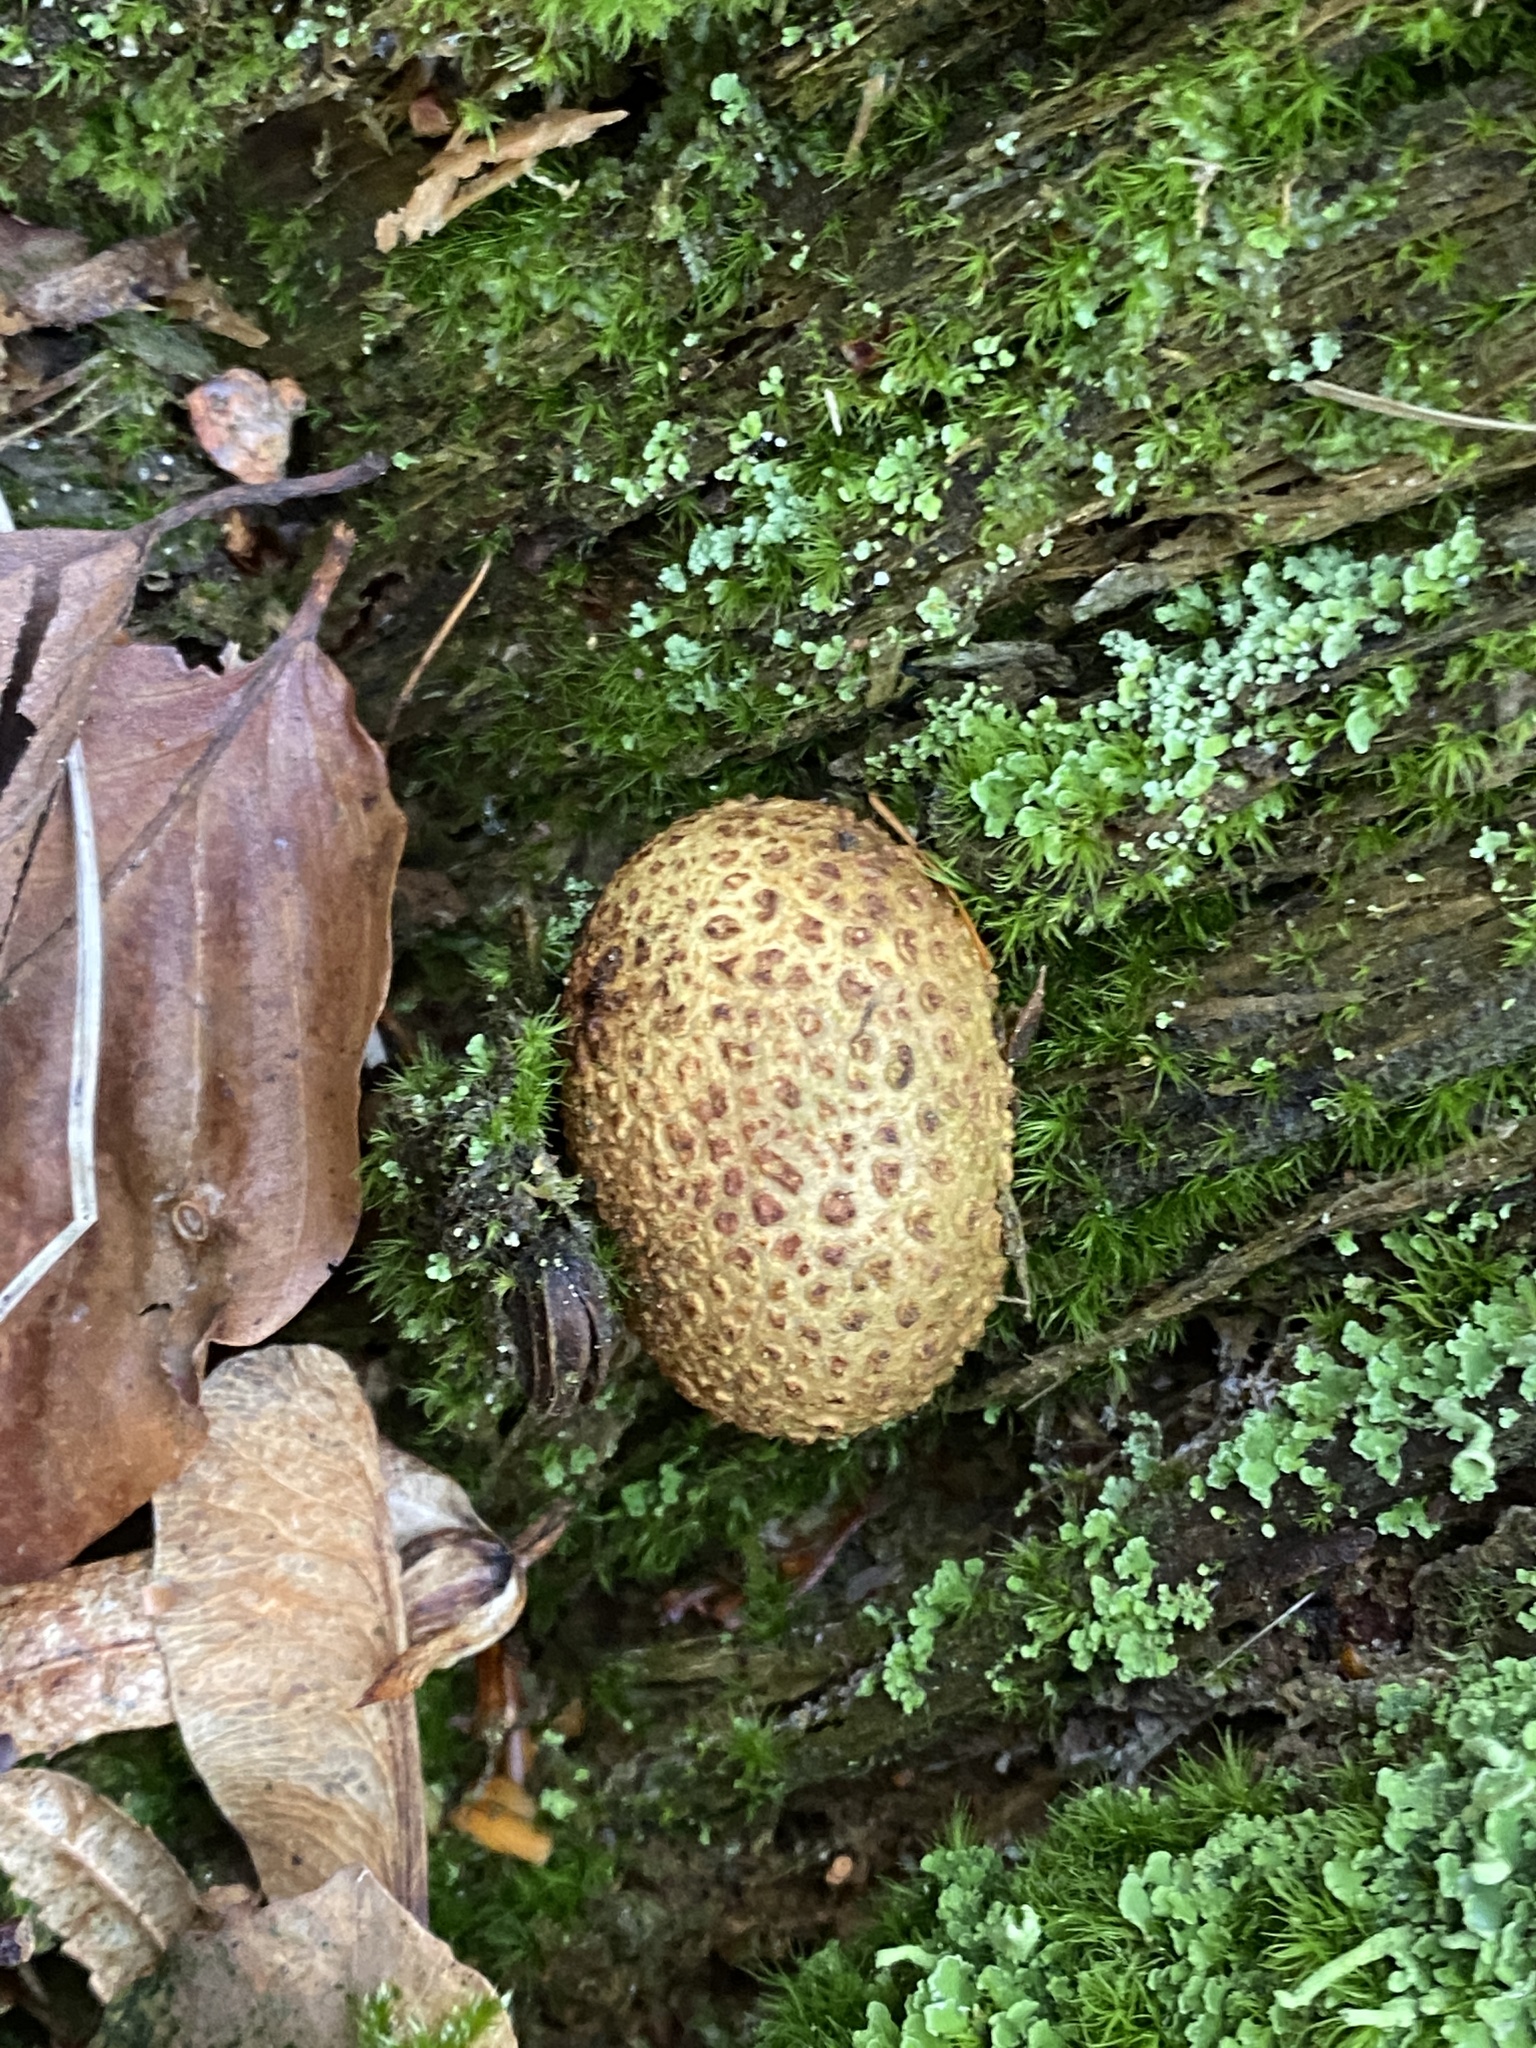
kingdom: Fungi
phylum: Basidiomycota
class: Agaricomycetes
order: Boletales
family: Sclerodermataceae
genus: Scleroderma
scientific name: Scleroderma citrinum
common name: Common earthball
